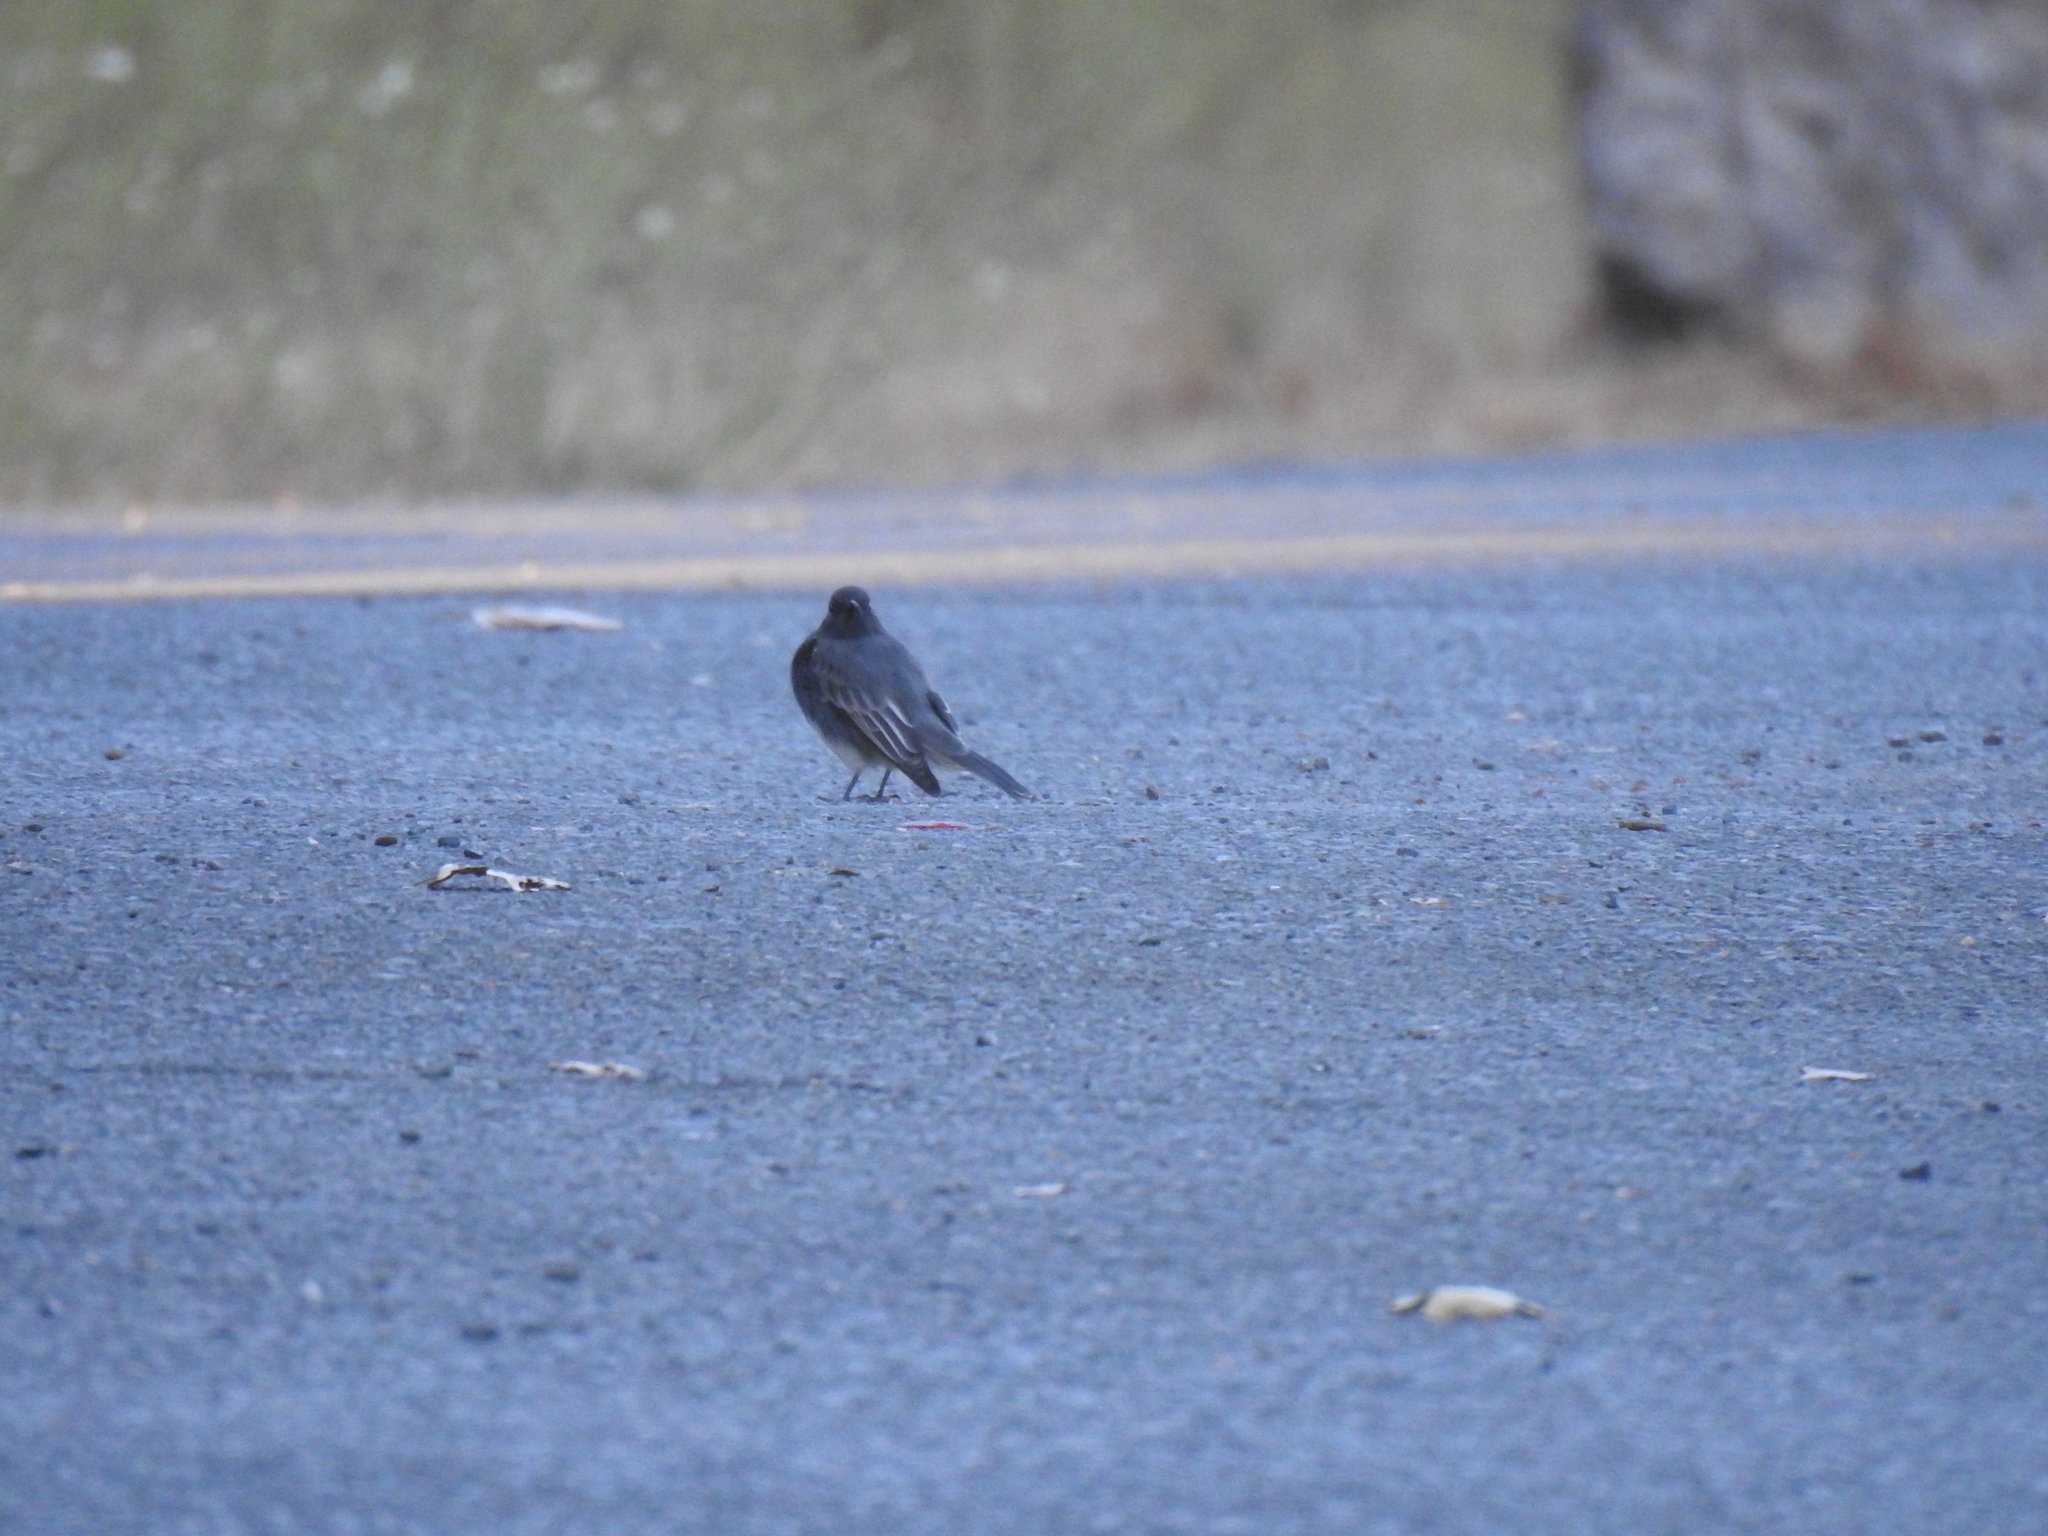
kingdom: Animalia
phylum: Chordata
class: Aves
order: Passeriformes
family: Tyrannidae
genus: Sayornis
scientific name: Sayornis nigricans
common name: Black phoebe
